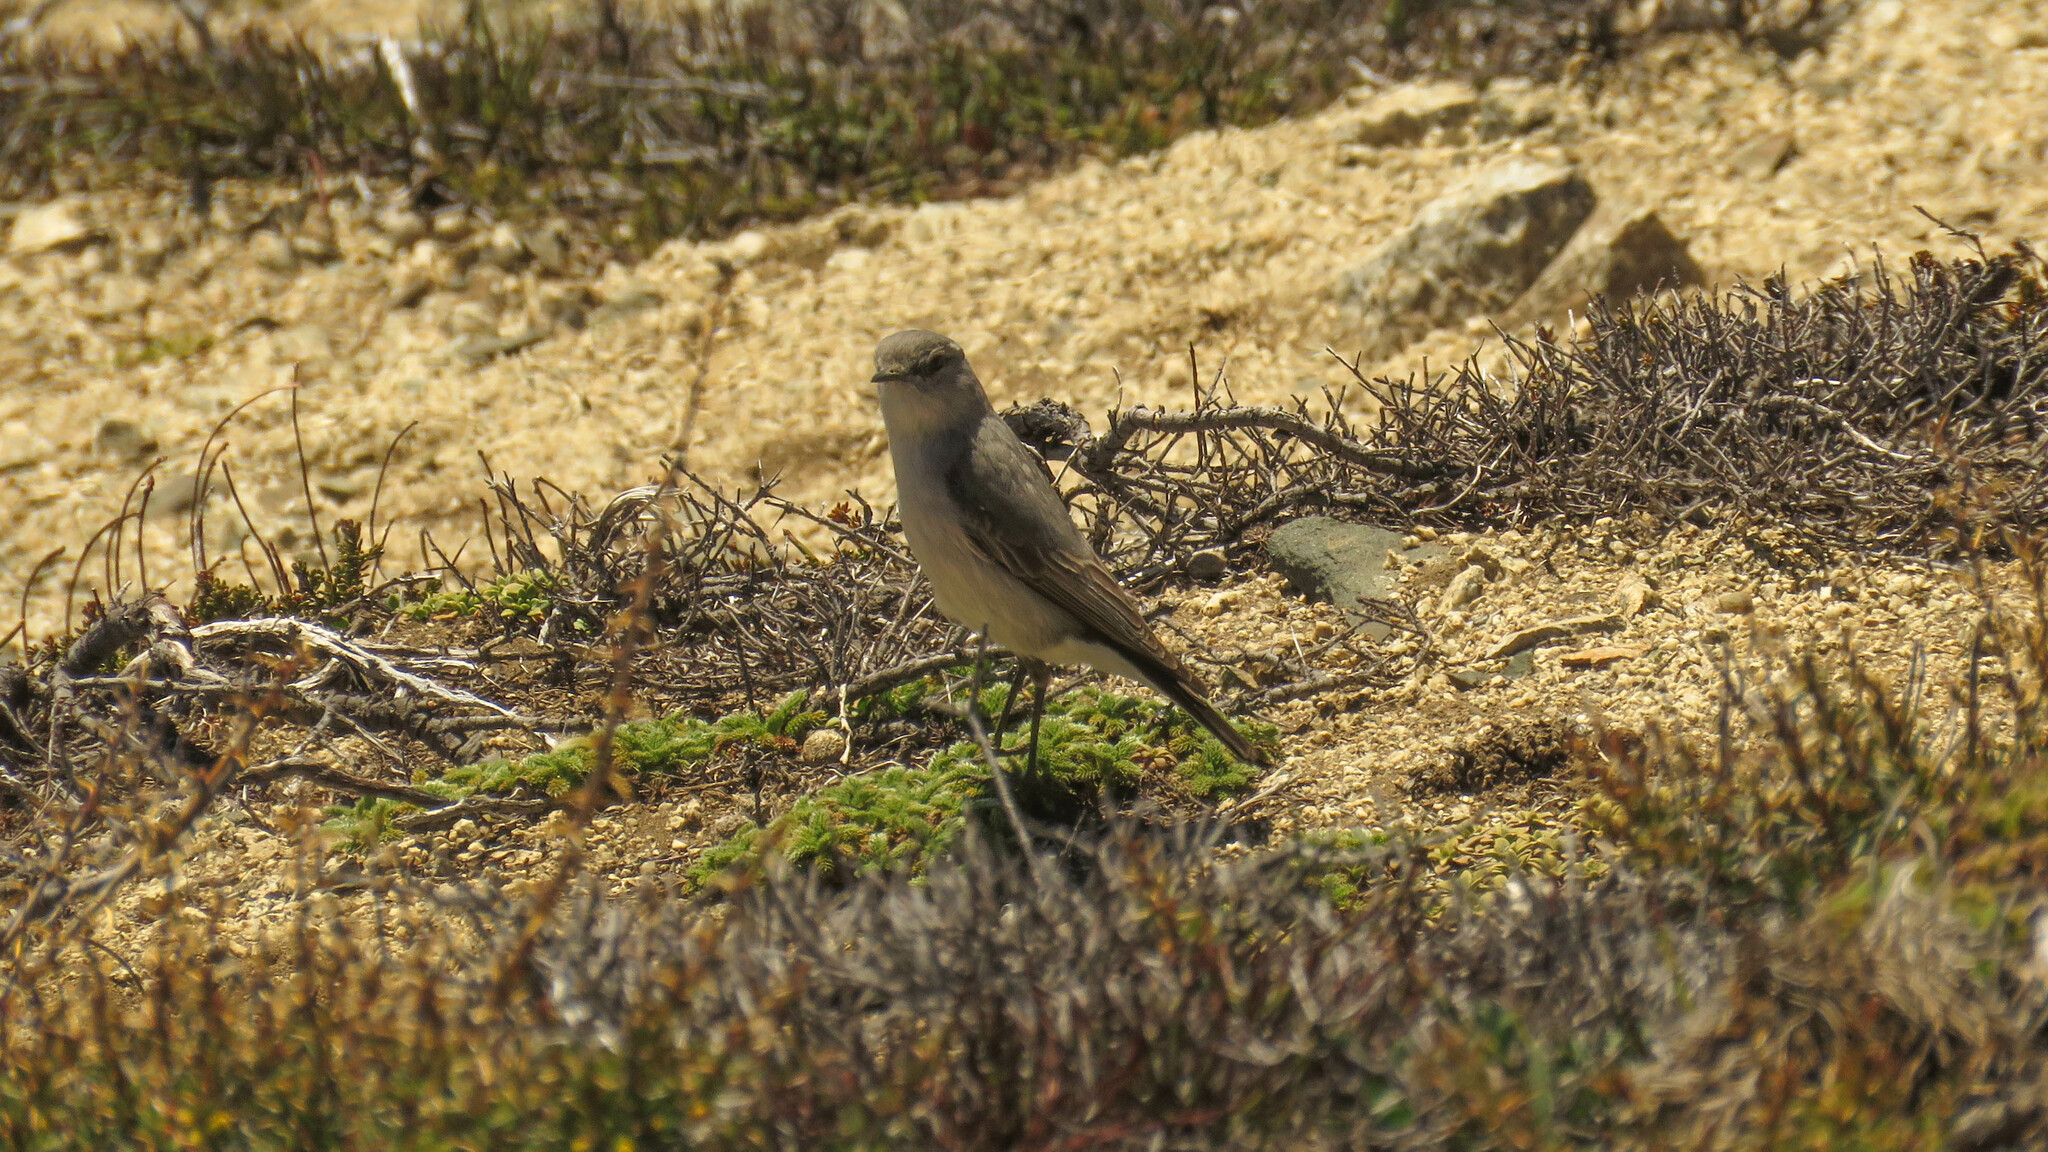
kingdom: Animalia
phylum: Chordata
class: Aves
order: Passeriformes
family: Tyrannidae
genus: Muscisaxicola
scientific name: Muscisaxicola cinereus
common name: Cinereous ground tyrant
